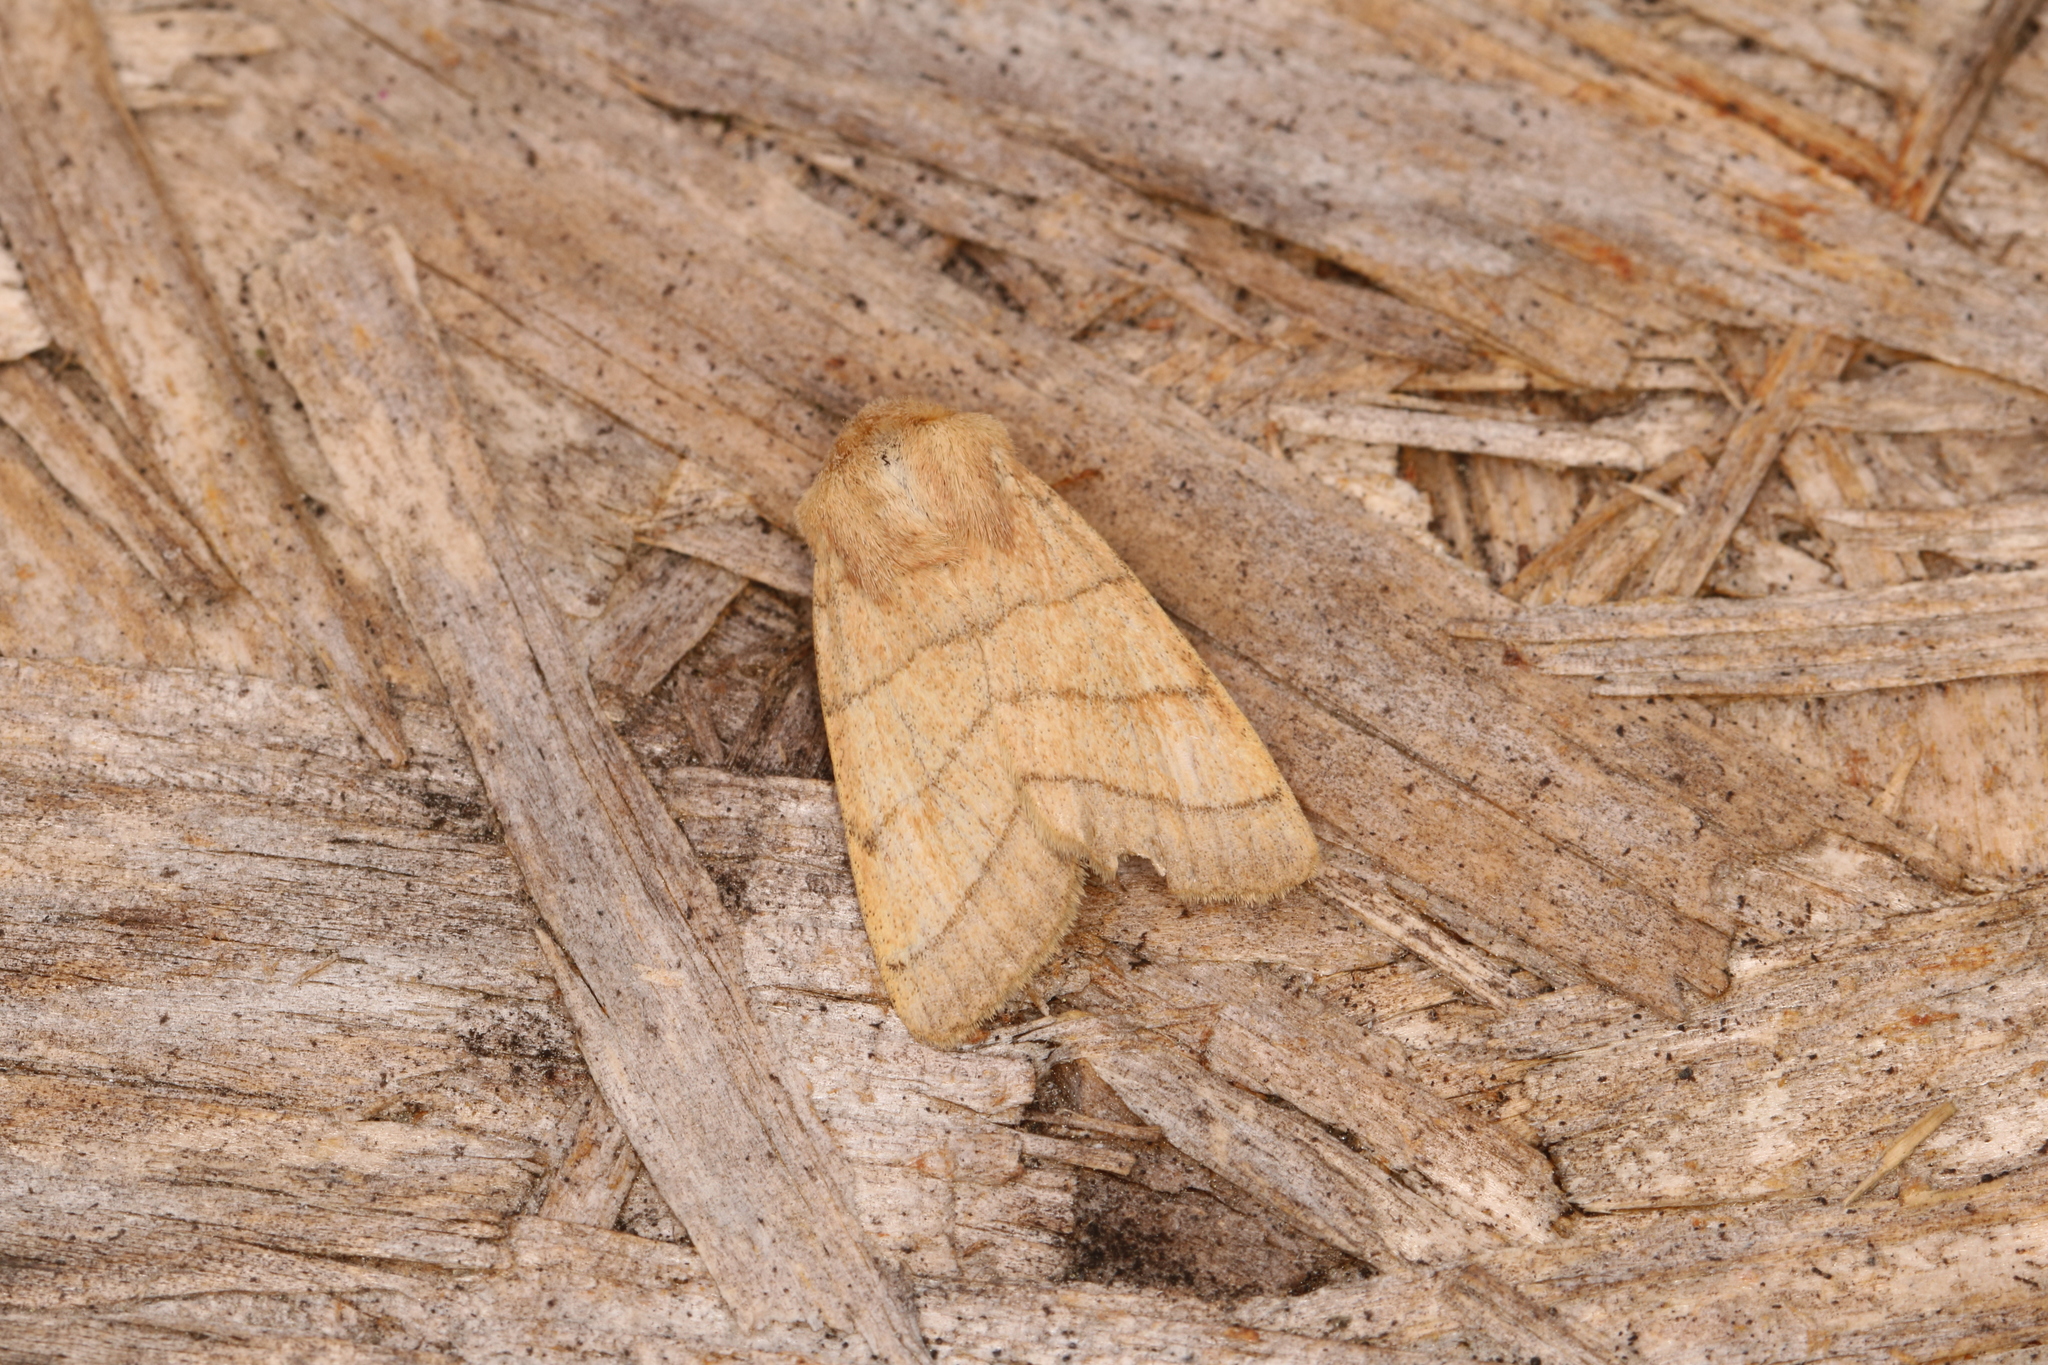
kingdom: Animalia
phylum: Arthropoda
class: Insecta
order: Lepidoptera
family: Noctuidae
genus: Charanyca
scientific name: Charanyca trigrammica
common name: Treble lines
